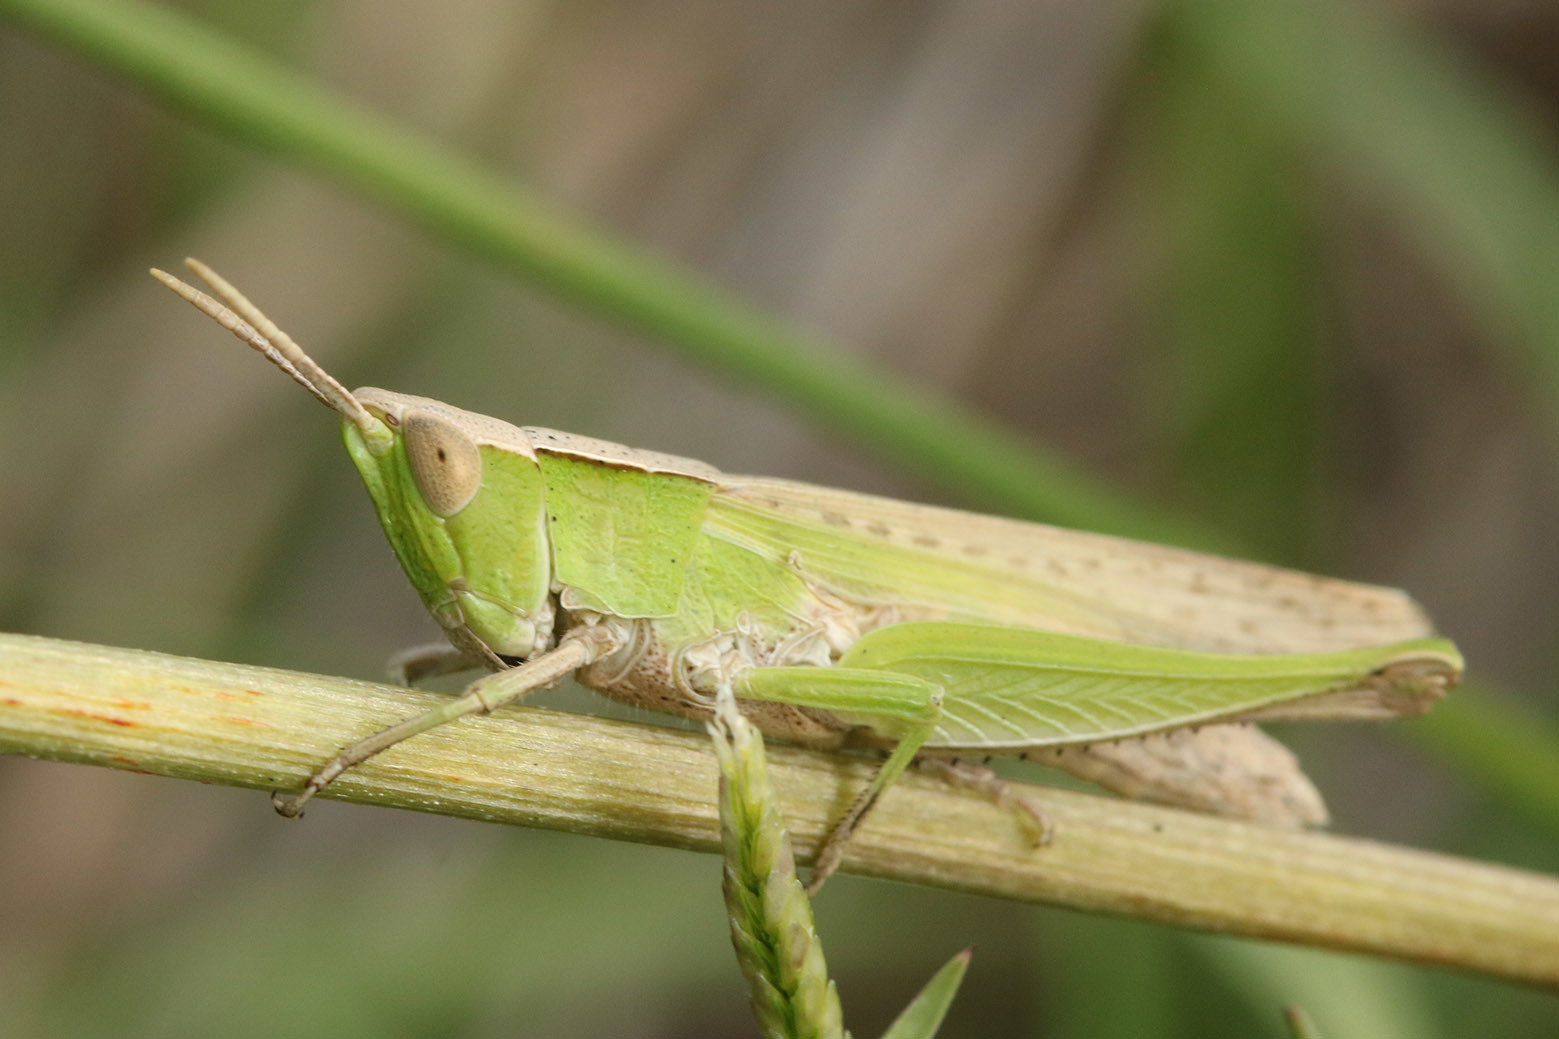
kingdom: Animalia
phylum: Arthropoda
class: Insecta
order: Orthoptera
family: Acrididae
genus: Laplatacris
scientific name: Laplatacris dispar
